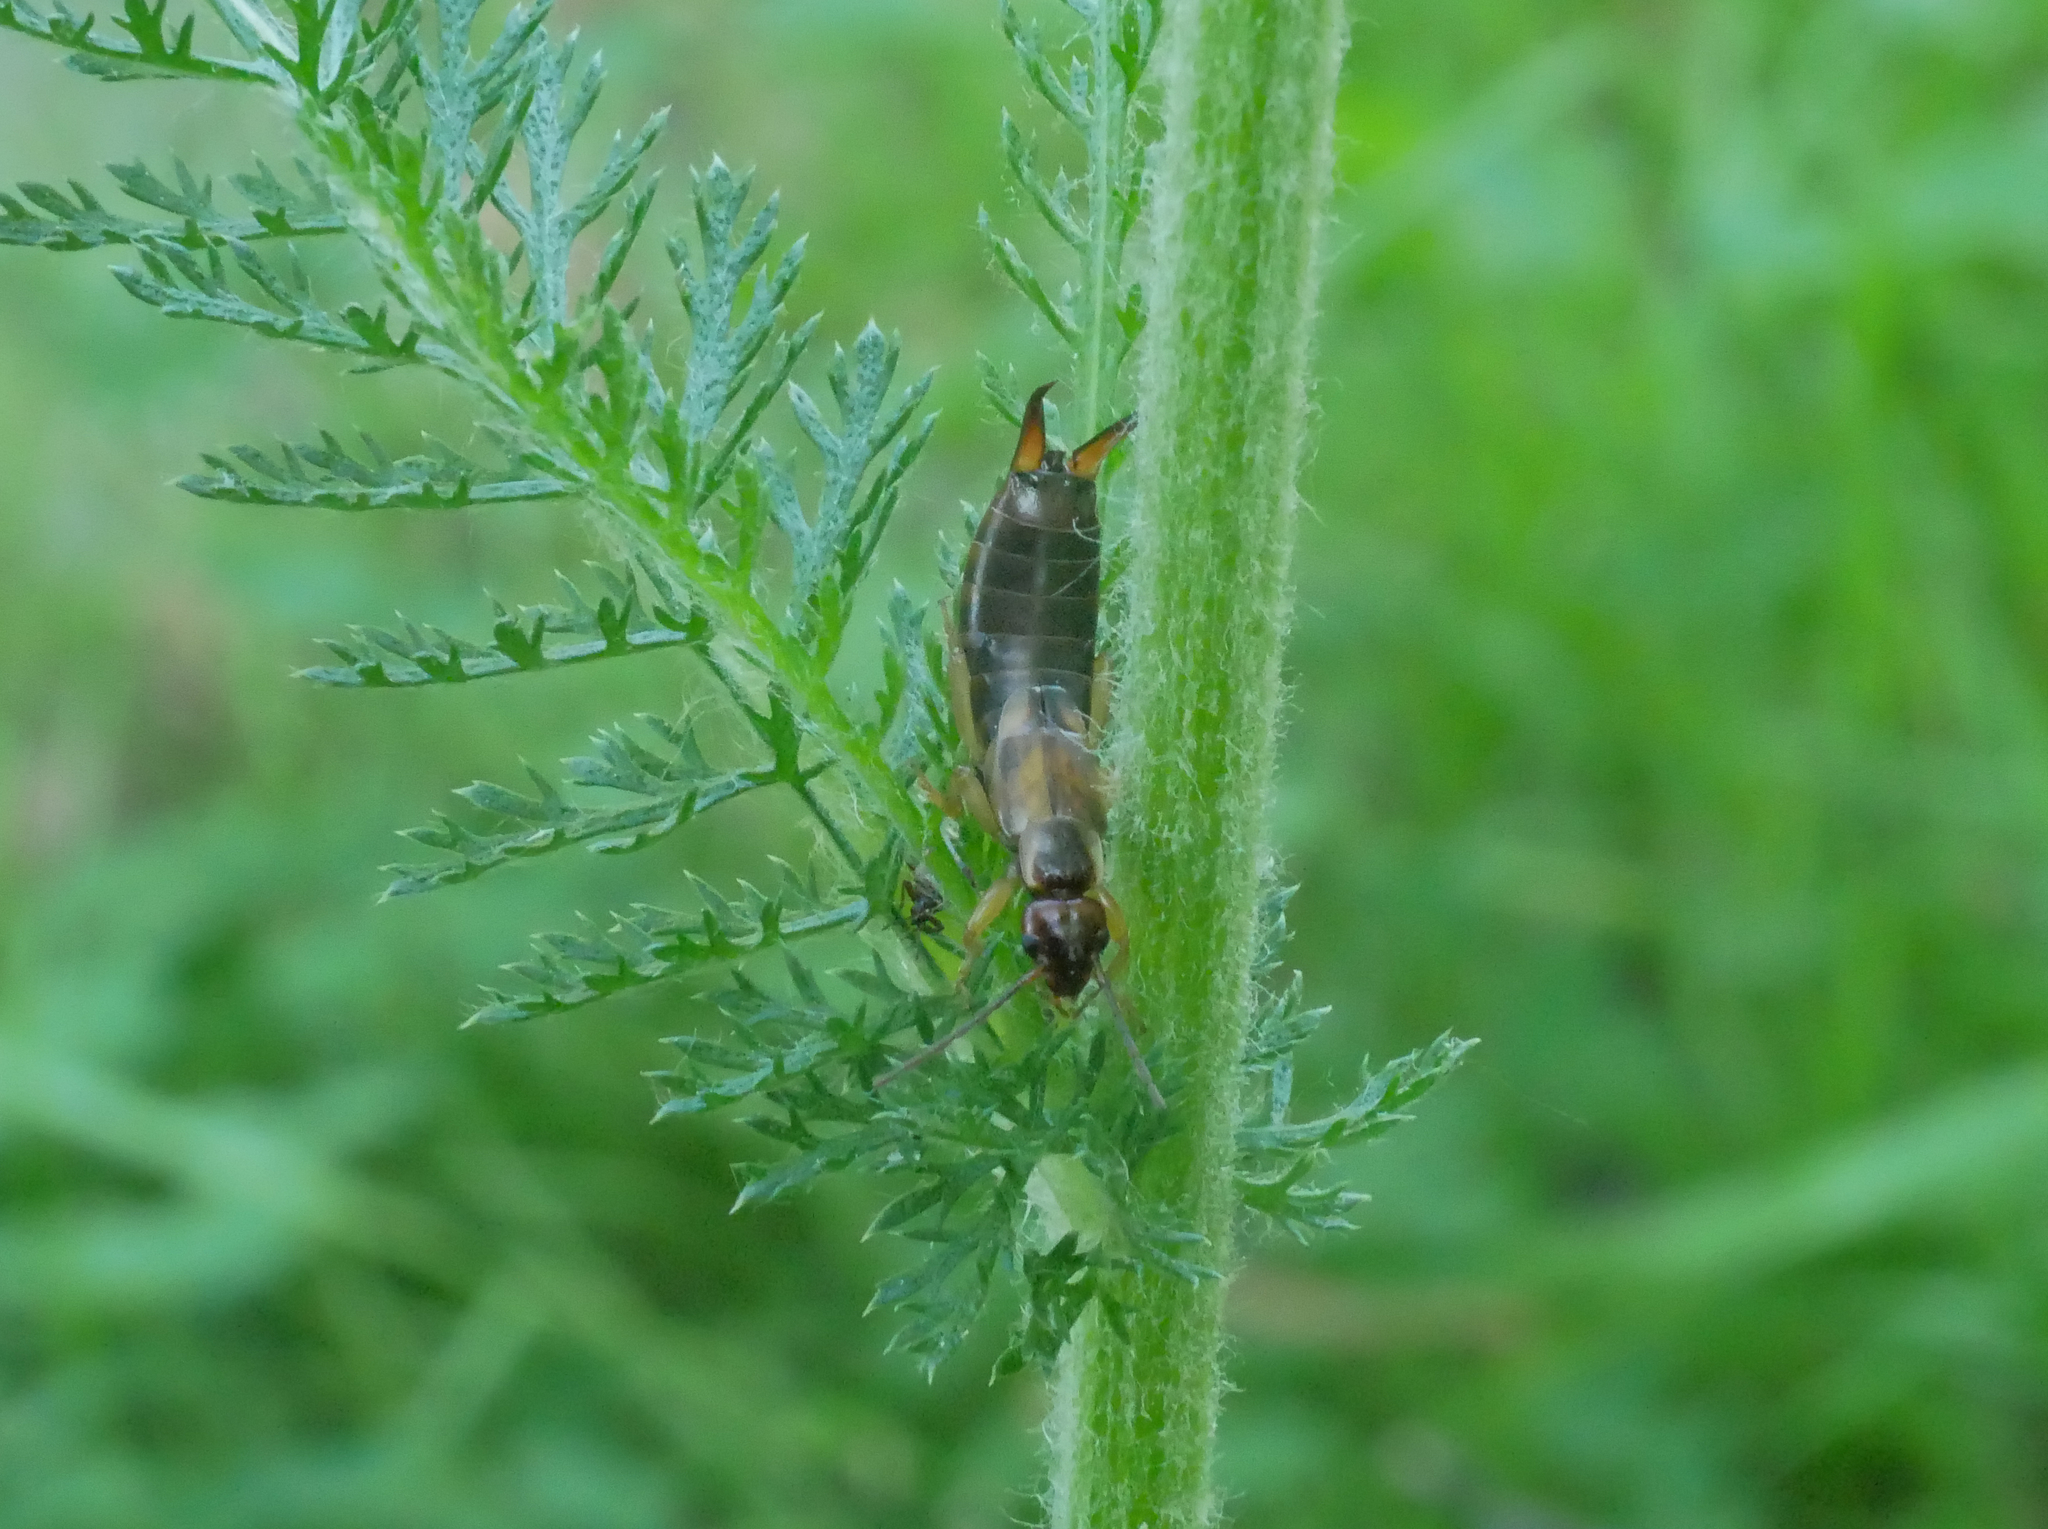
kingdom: Animalia
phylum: Arthropoda
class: Insecta
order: Dermaptera
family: Forficulidae
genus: Forficula
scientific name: Forficula
